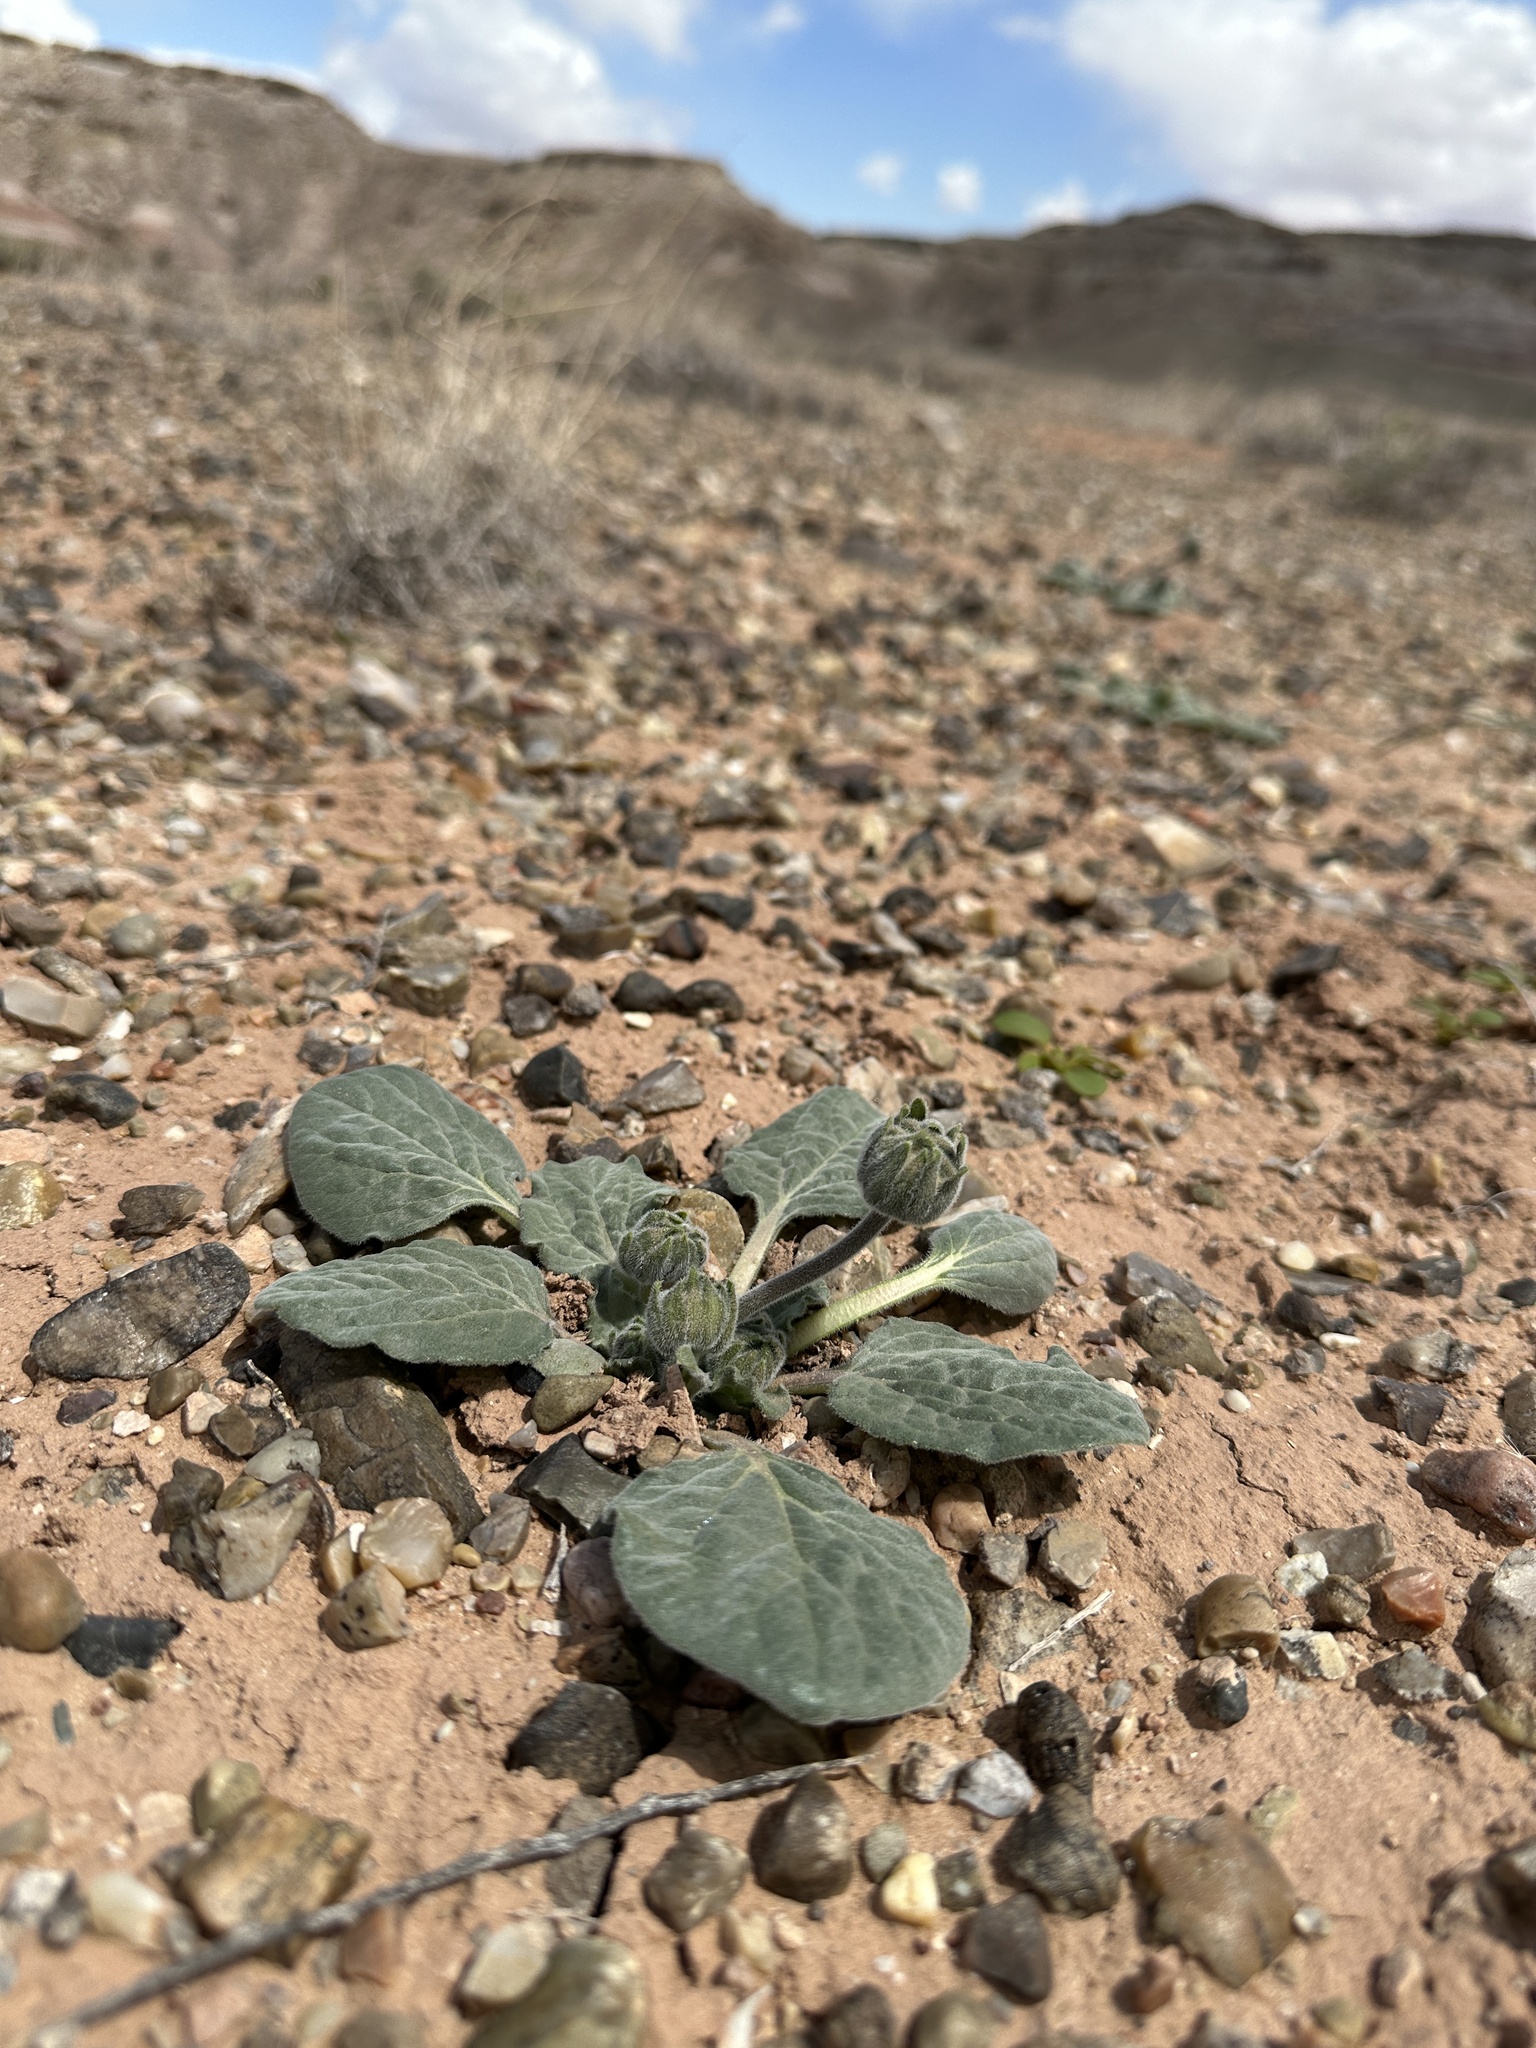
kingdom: Plantae
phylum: Tracheophyta
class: Magnoliopsida
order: Asterales
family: Asteraceae
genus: Encelia
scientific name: Encelia nutans
